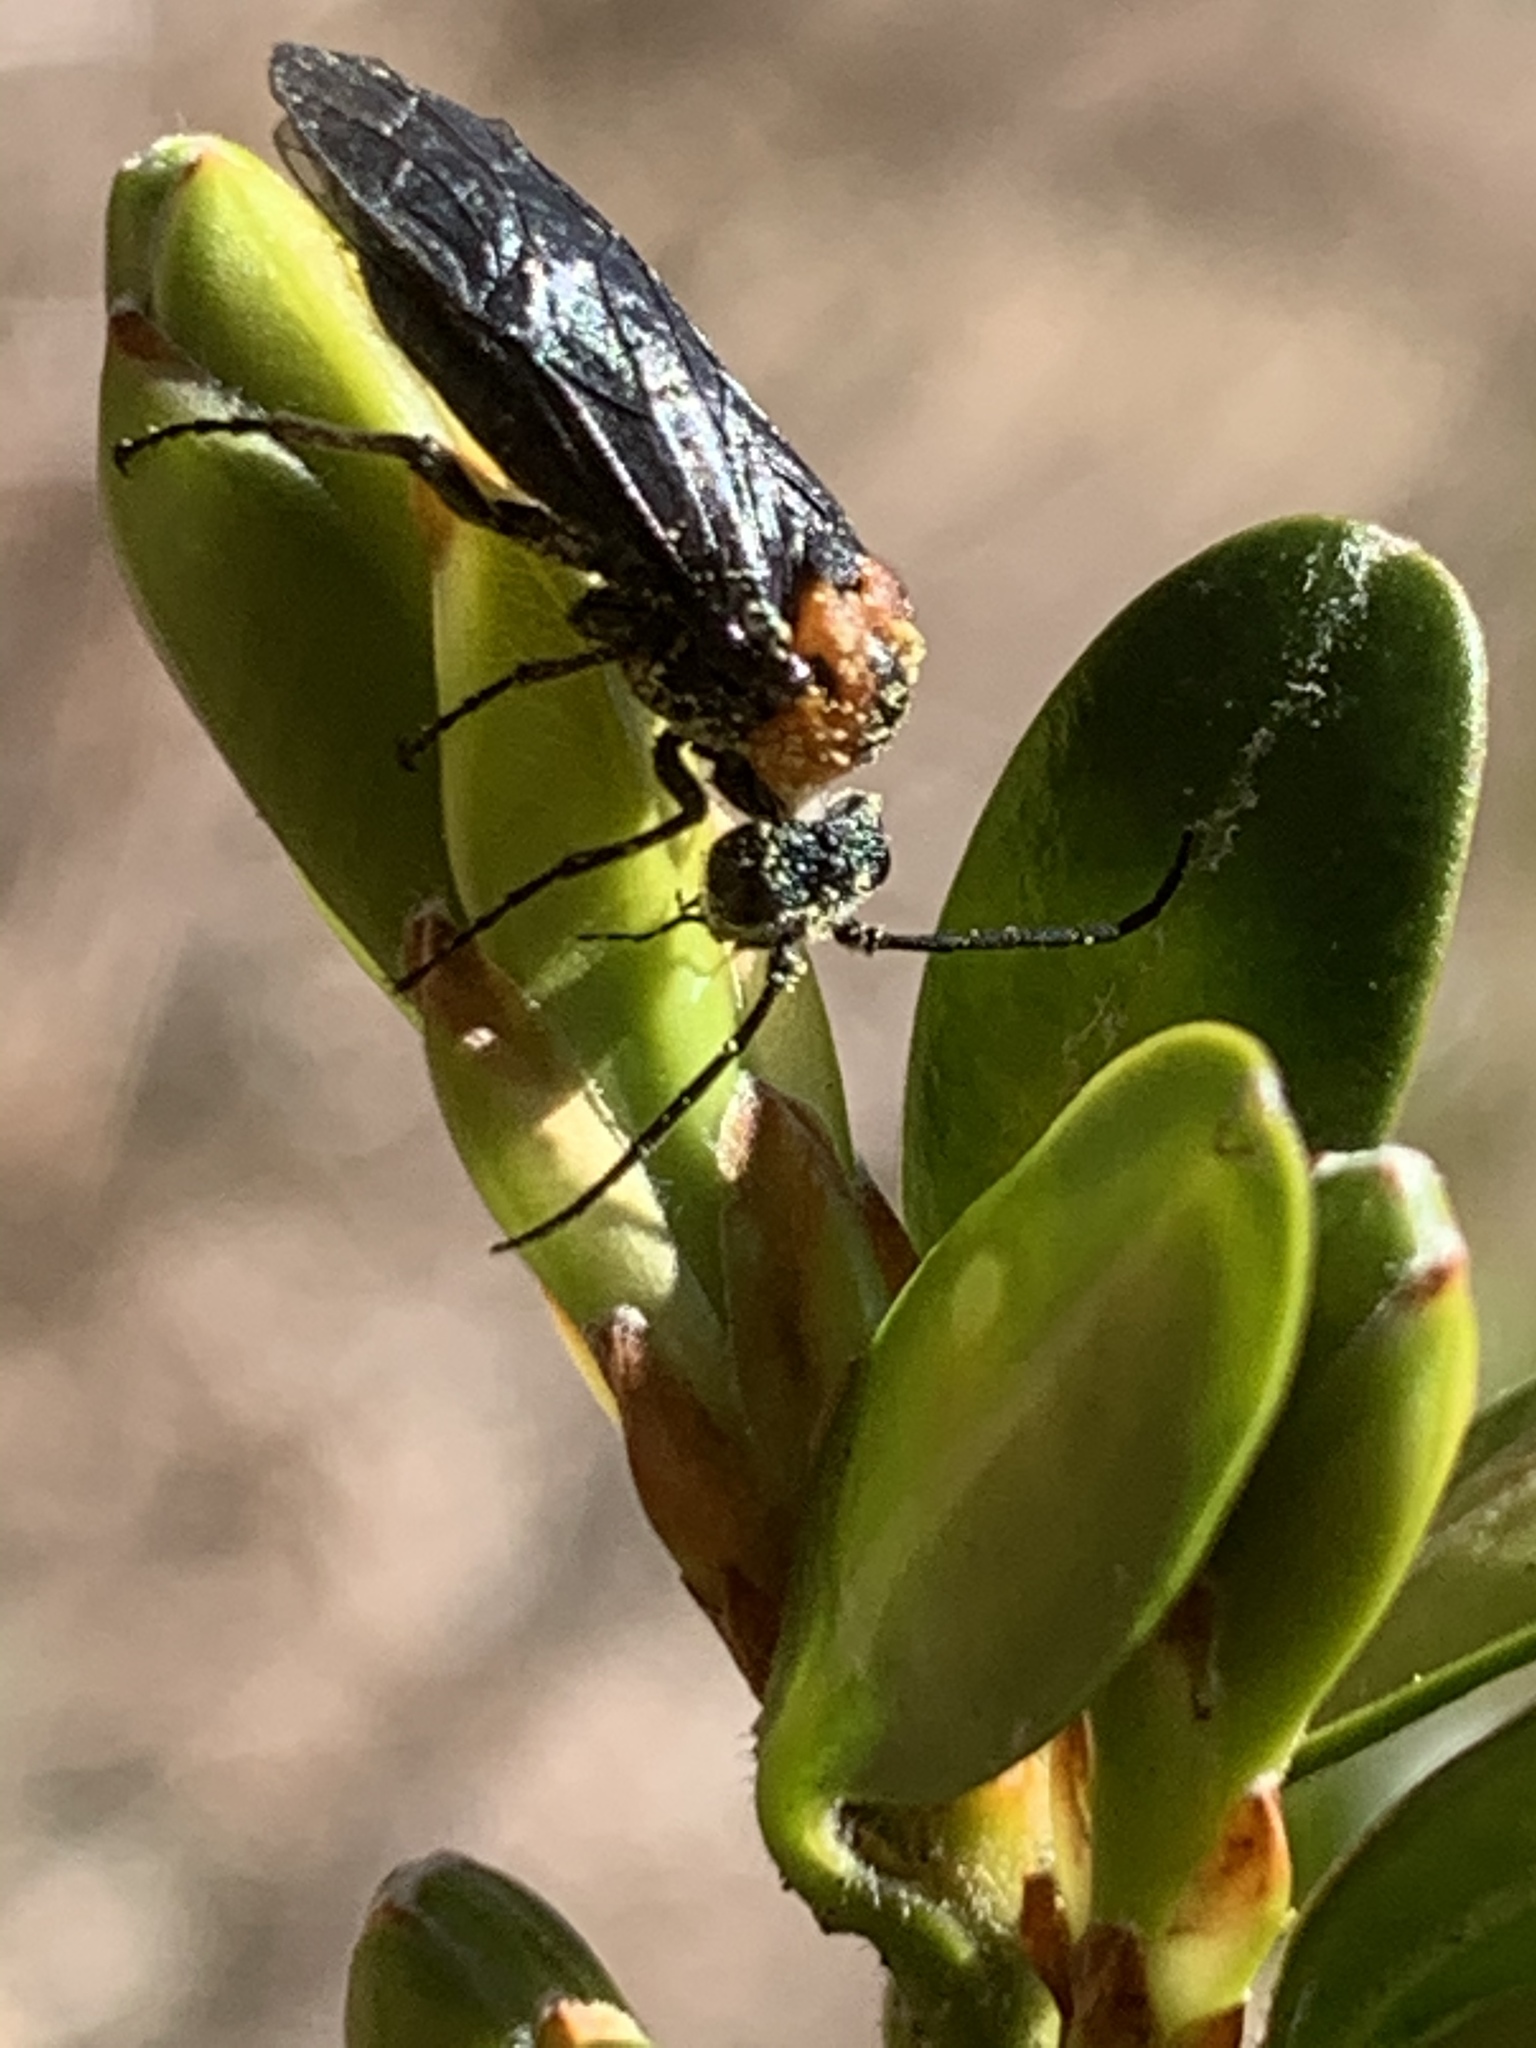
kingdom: Animalia
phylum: Arthropoda
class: Insecta
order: Hymenoptera
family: Tenthredinidae
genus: Dolerus
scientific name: Dolerus unicolor
